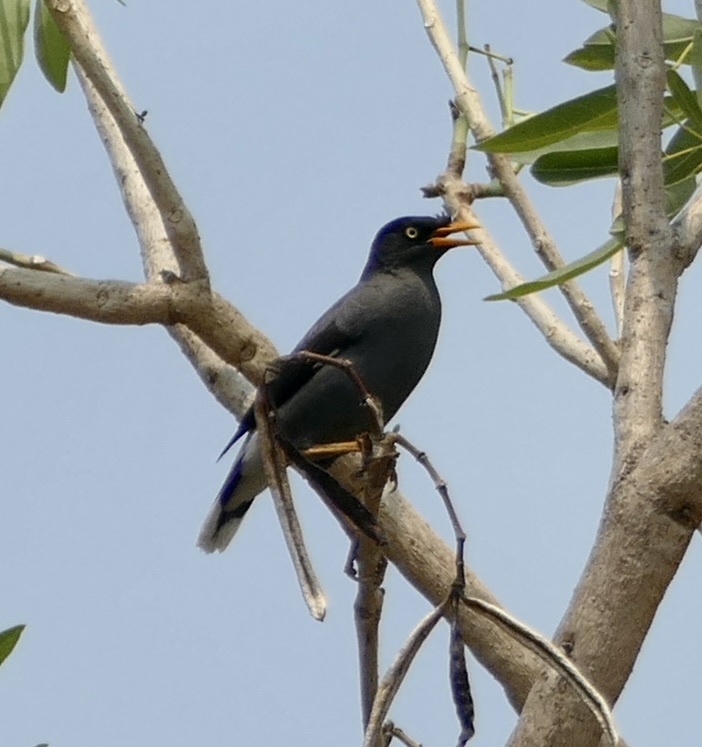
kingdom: Animalia
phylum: Chordata
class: Aves
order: Passeriformes
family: Sturnidae
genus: Acridotheres
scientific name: Acridotheres javanicus
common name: Javan myna
